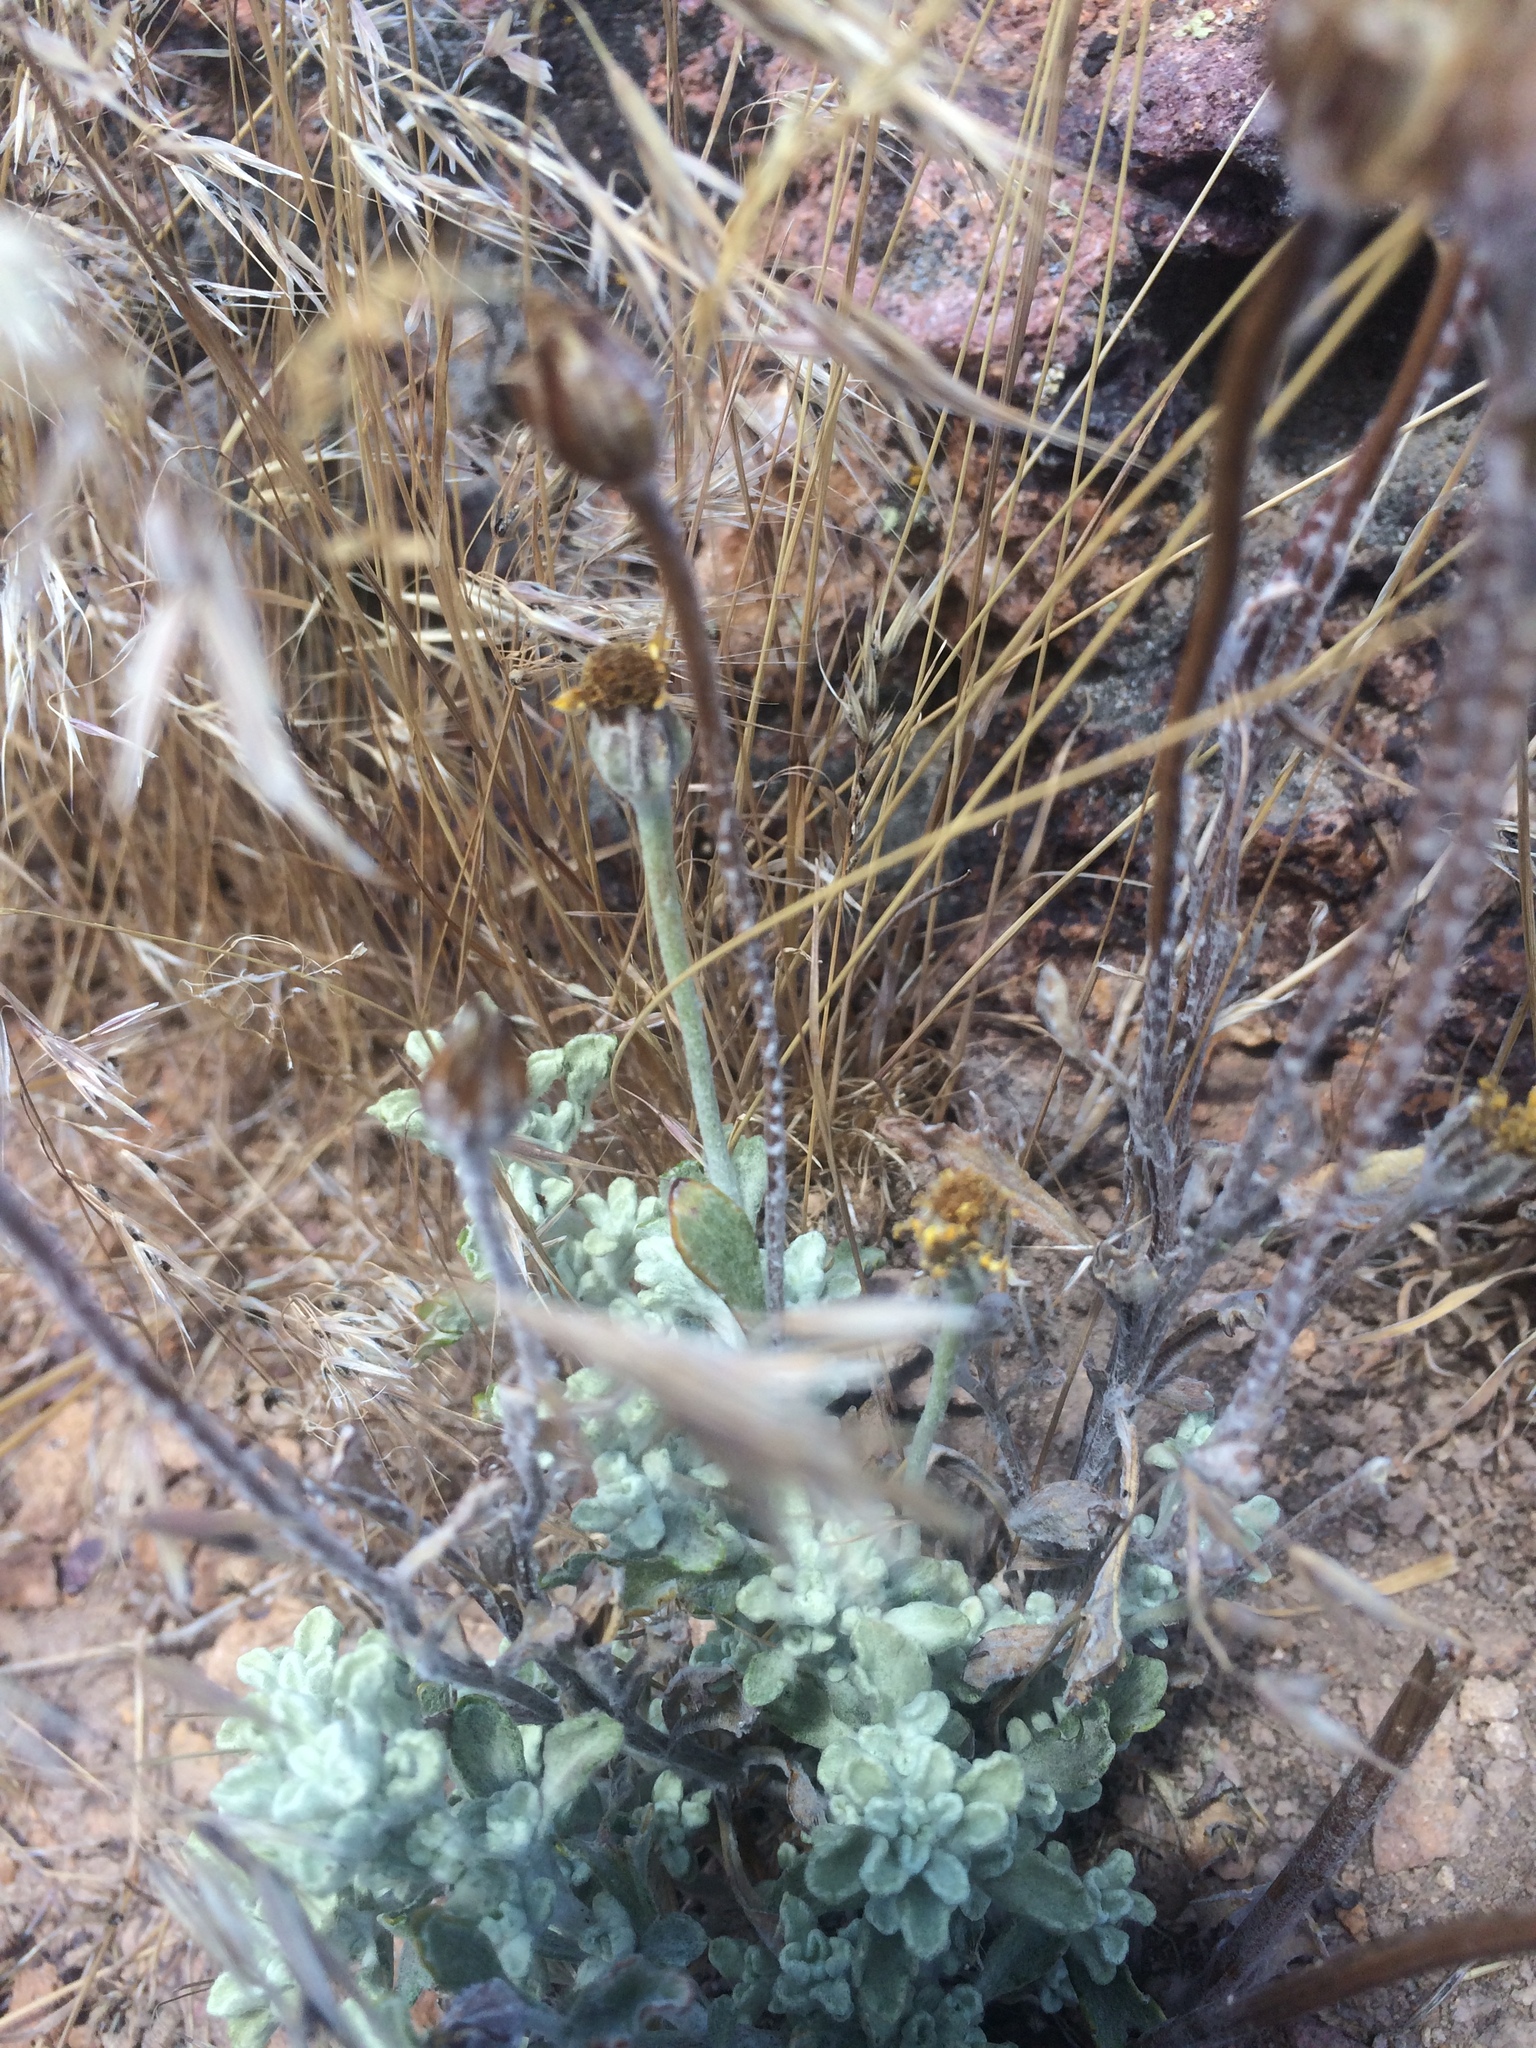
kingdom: Plantae
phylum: Tracheophyta
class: Magnoliopsida
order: Asterales
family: Asteraceae
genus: Eriophyllum
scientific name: Eriophyllum lanatum
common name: Common woolly-sunflower
